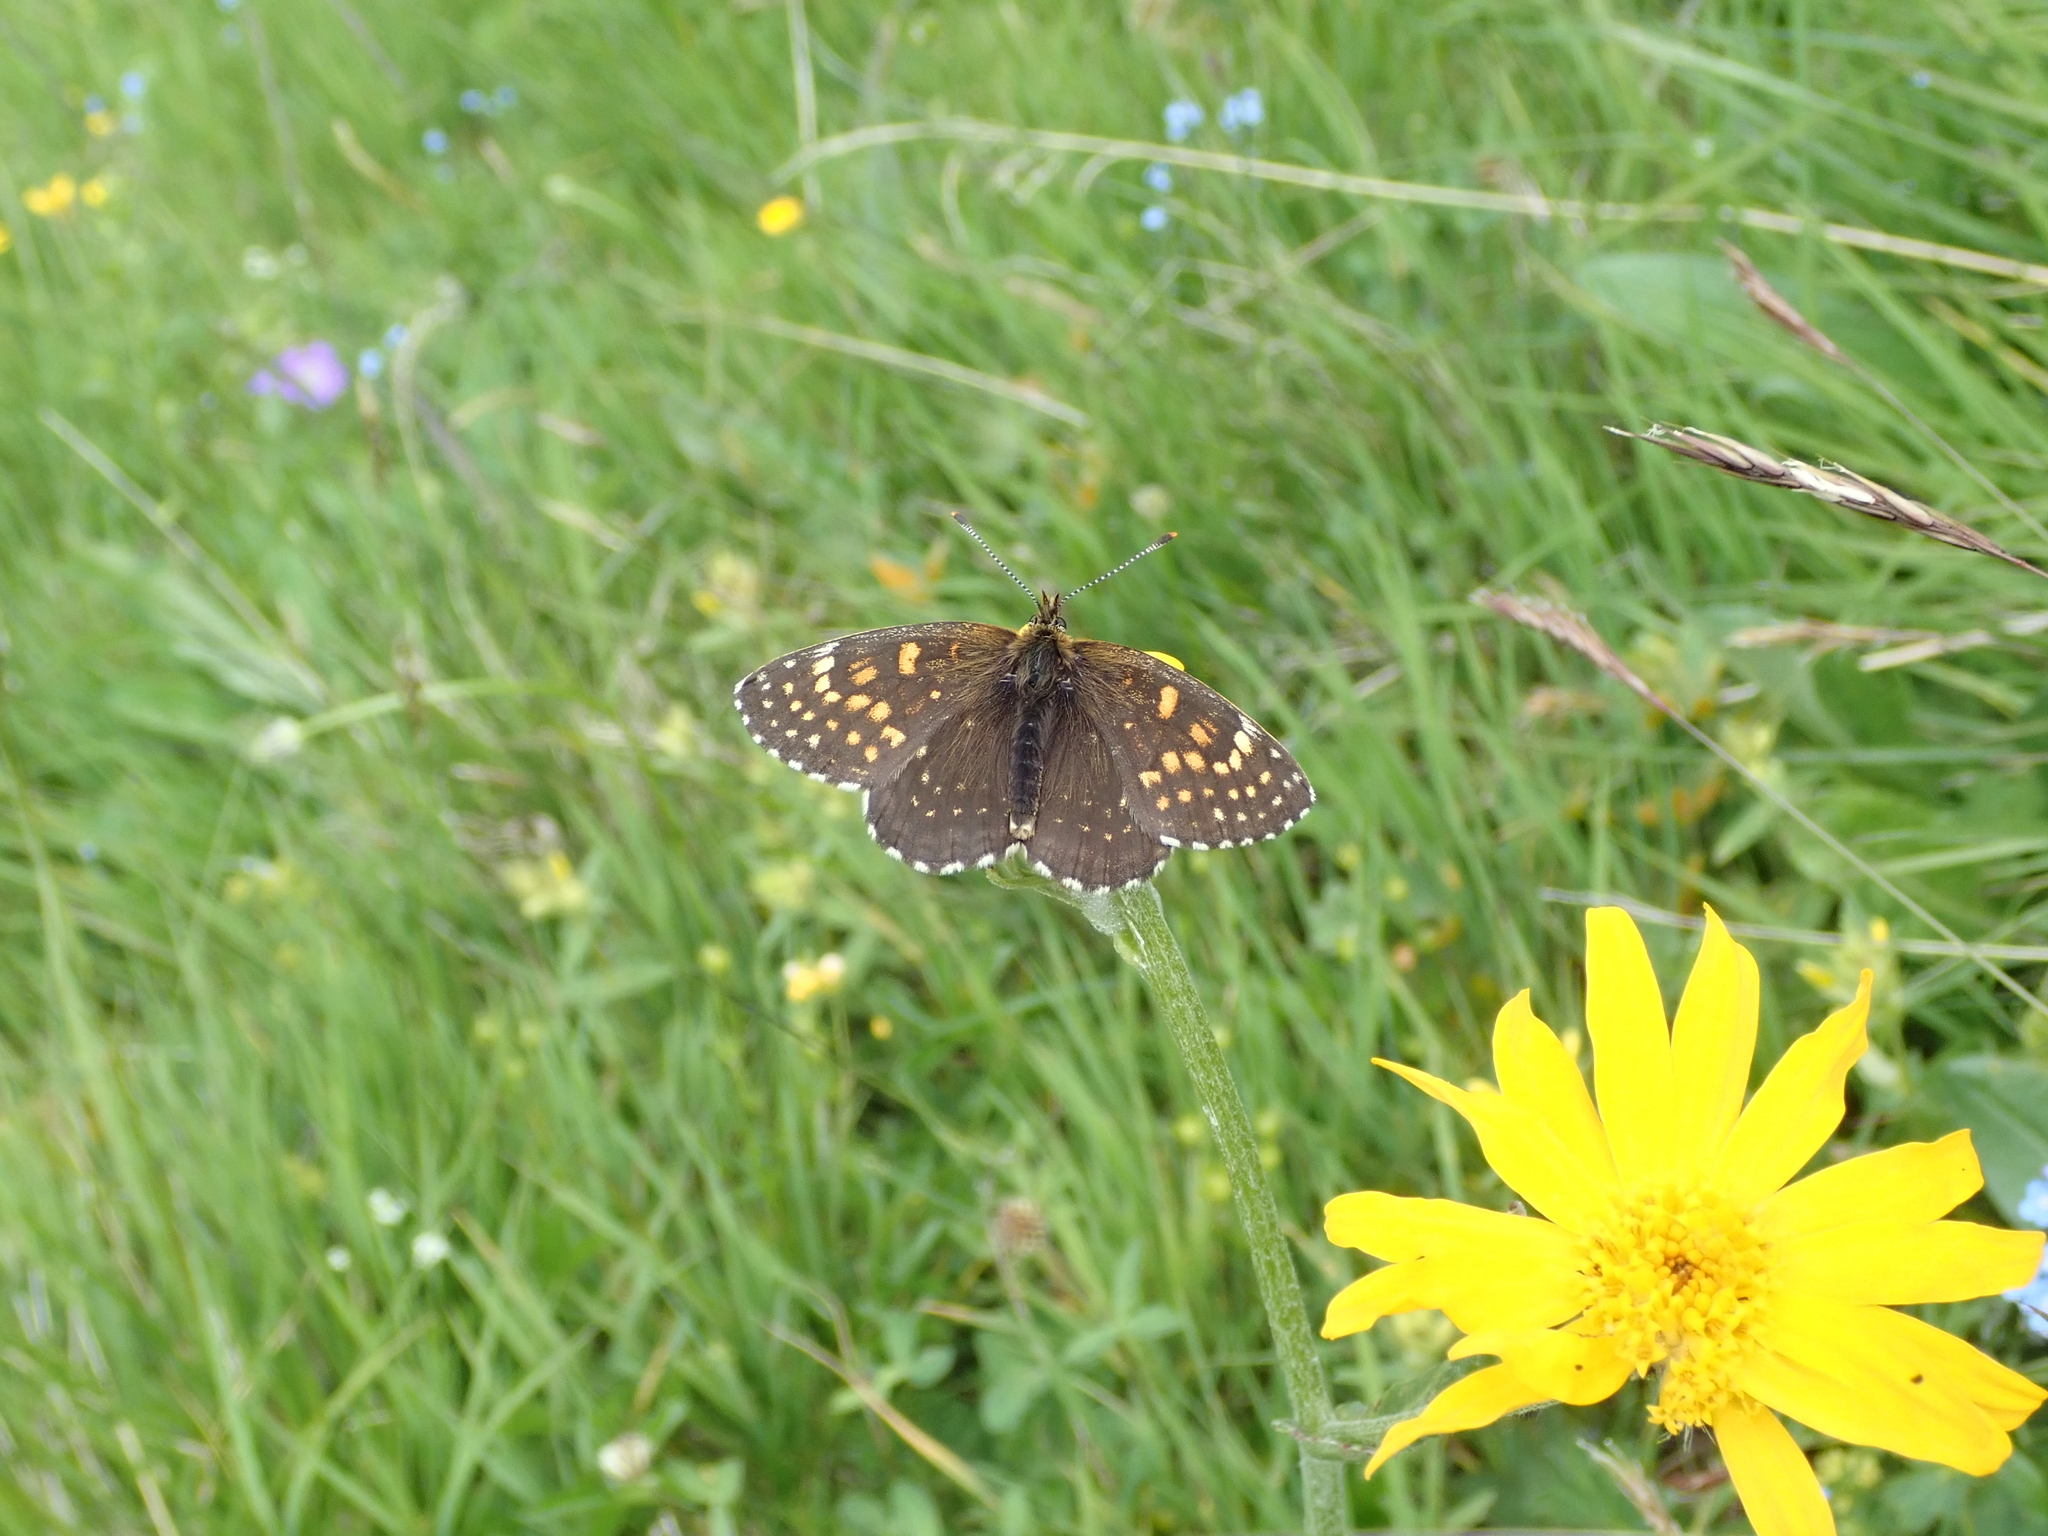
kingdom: Animalia
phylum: Arthropoda
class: Insecta
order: Lepidoptera
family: Nymphalidae
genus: Melitaea
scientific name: Melitaea diamina
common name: False heath fritillary
